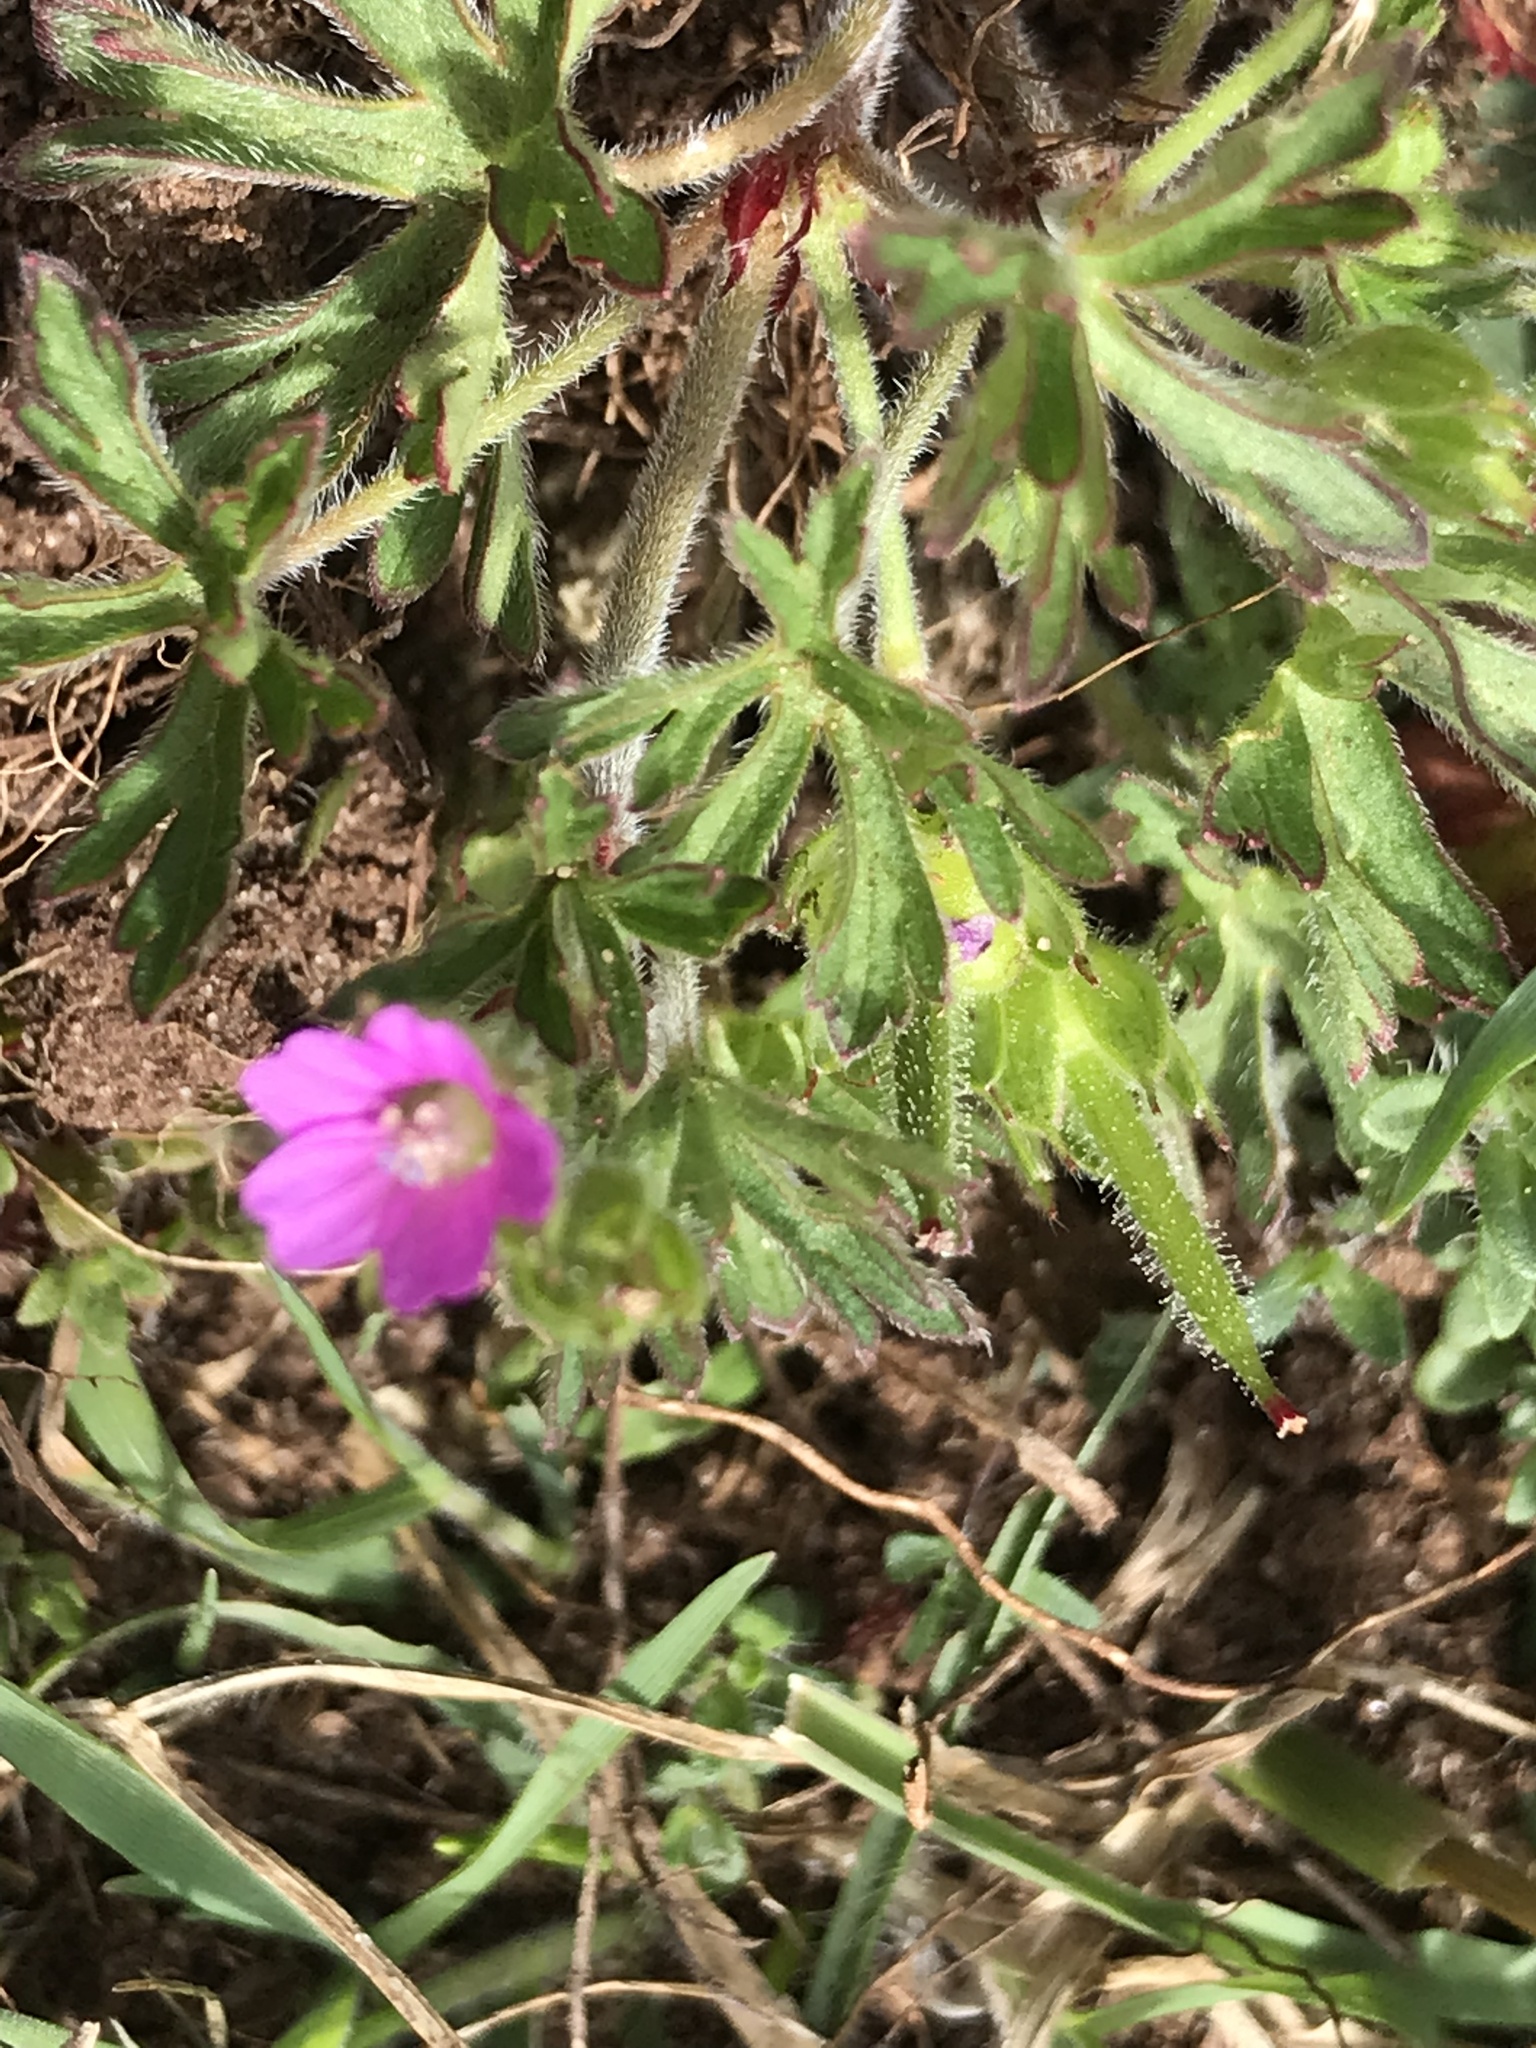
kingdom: Plantae
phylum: Tracheophyta
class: Magnoliopsida
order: Geraniales
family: Geraniaceae
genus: Geranium
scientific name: Geranium dissectum
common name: Cut-leaved crane's-bill
